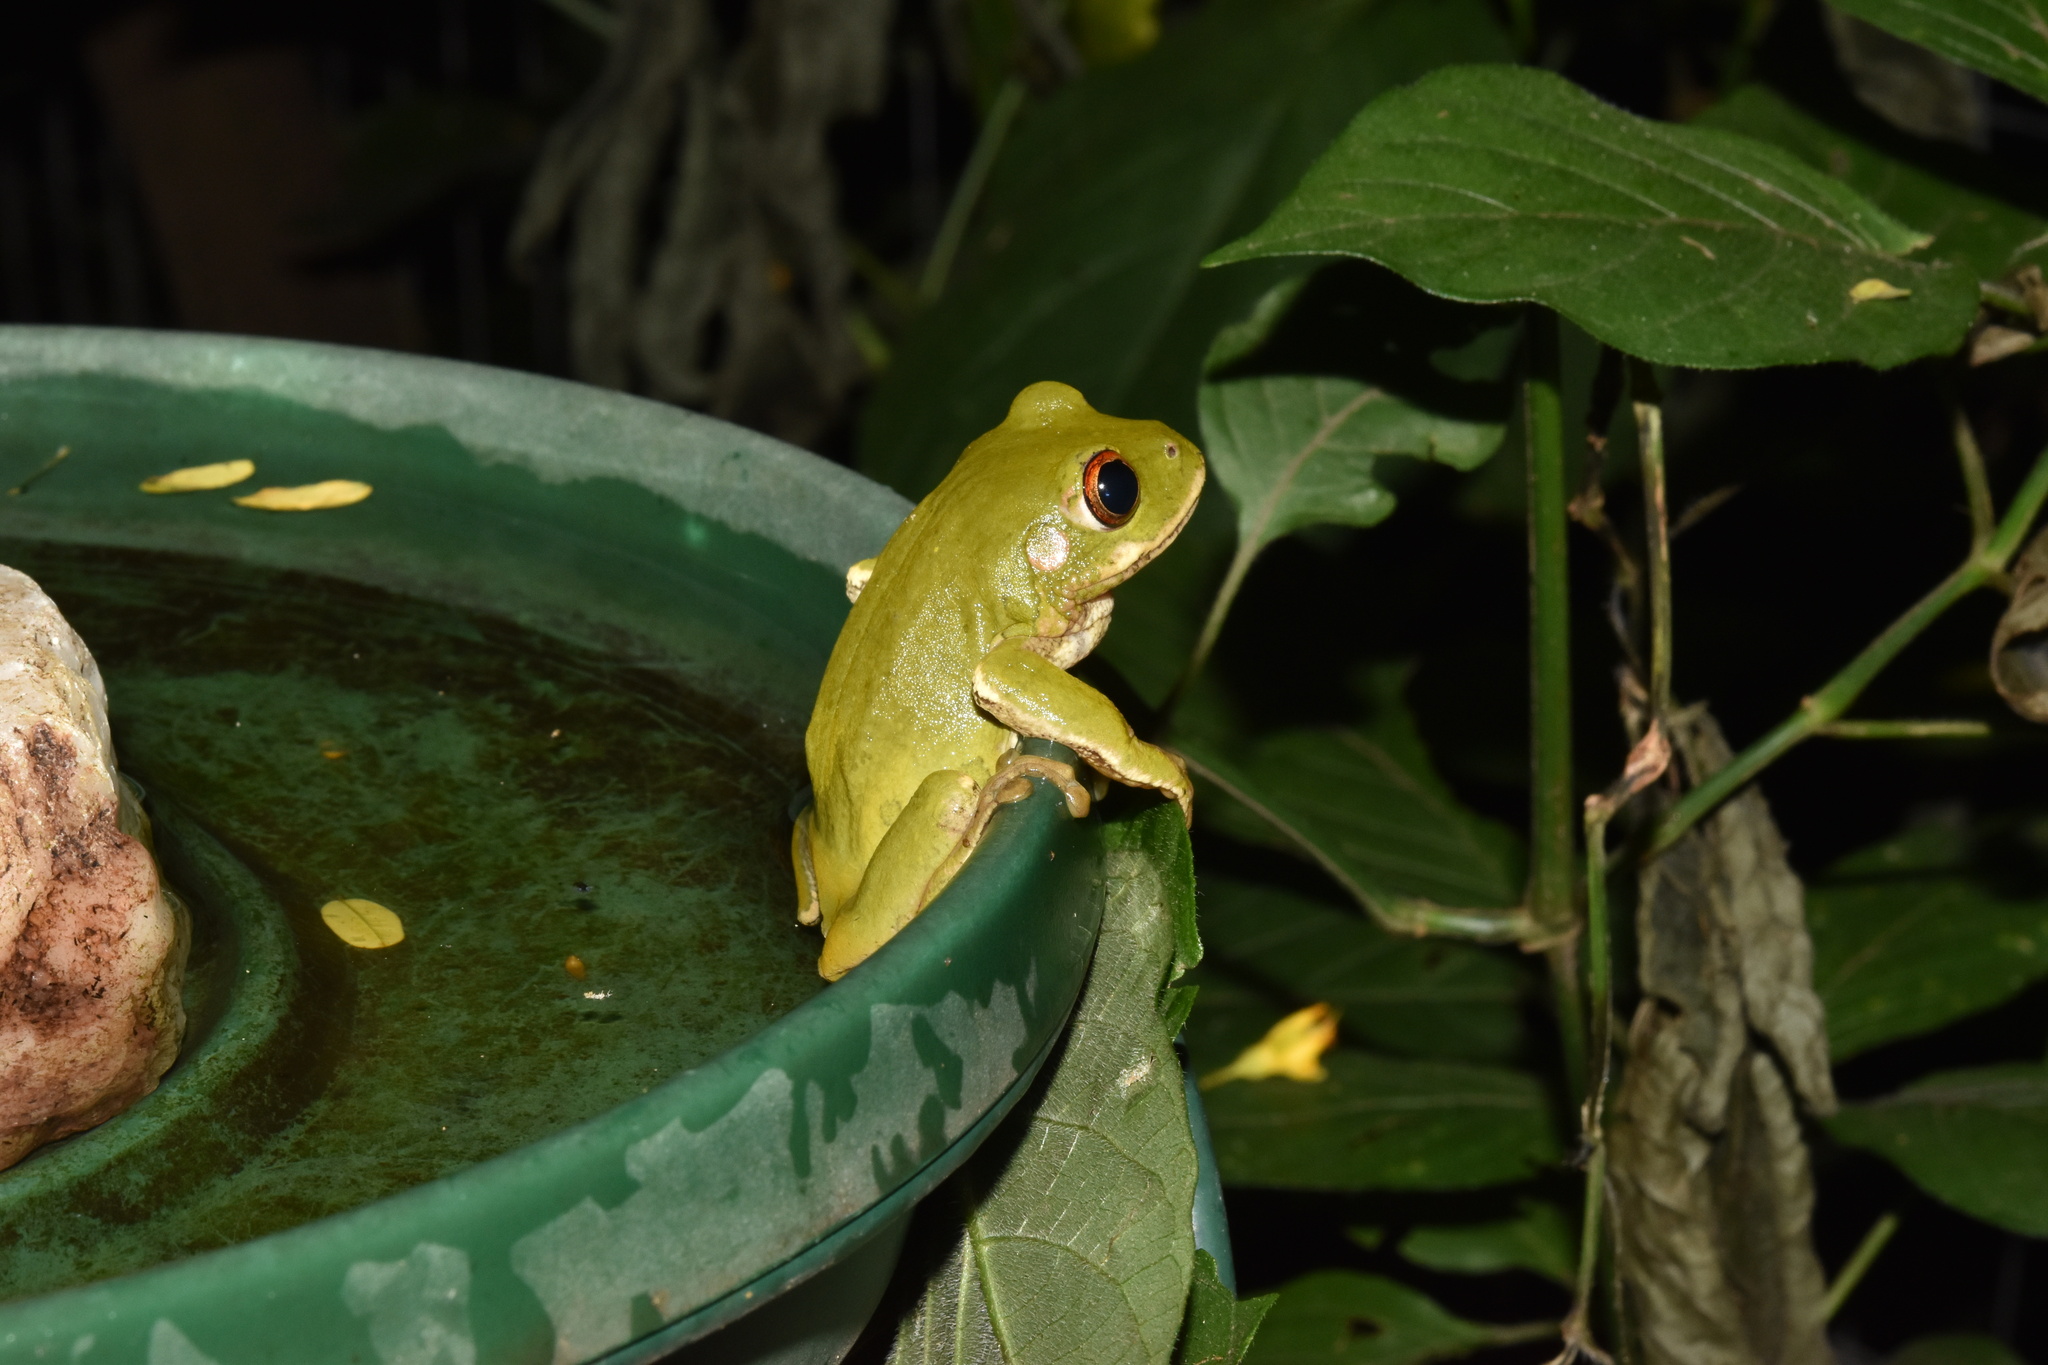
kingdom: Animalia
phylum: Chordata
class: Amphibia
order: Anura
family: Arthroleptidae
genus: Leptopelis
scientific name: Leptopelis natalensis
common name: Natal tree frog
